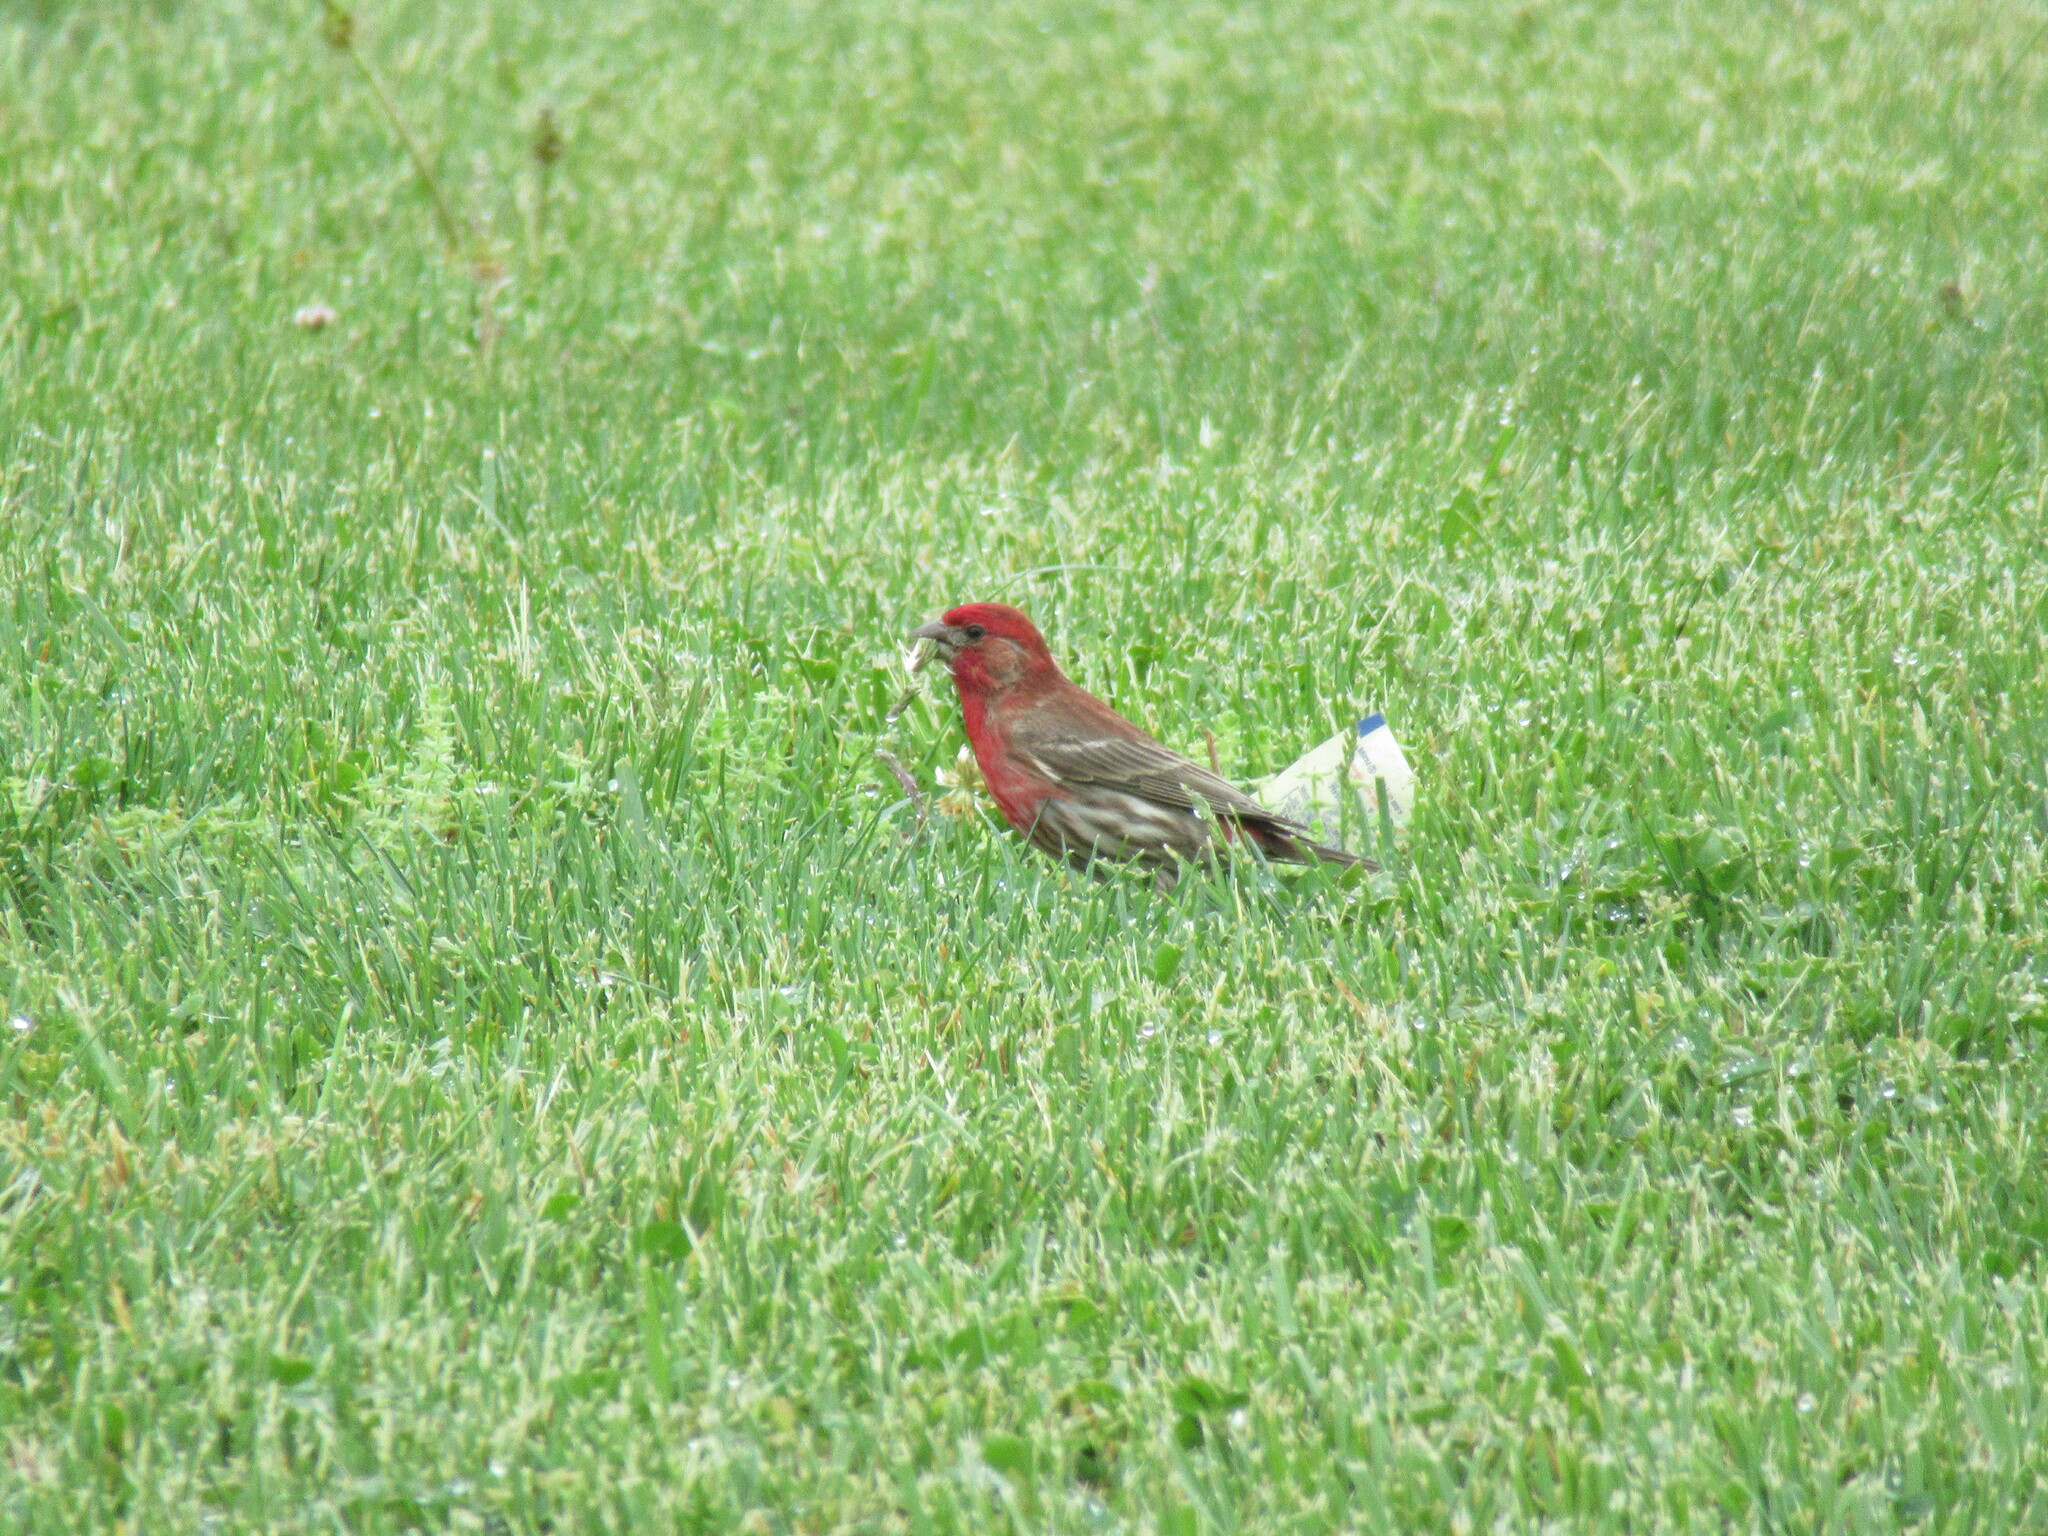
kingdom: Animalia
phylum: Chordata
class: Aves
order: Passeriformes
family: Fringillidae
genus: Haemorhous
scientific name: Haemorhous mexicanus
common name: House finch
